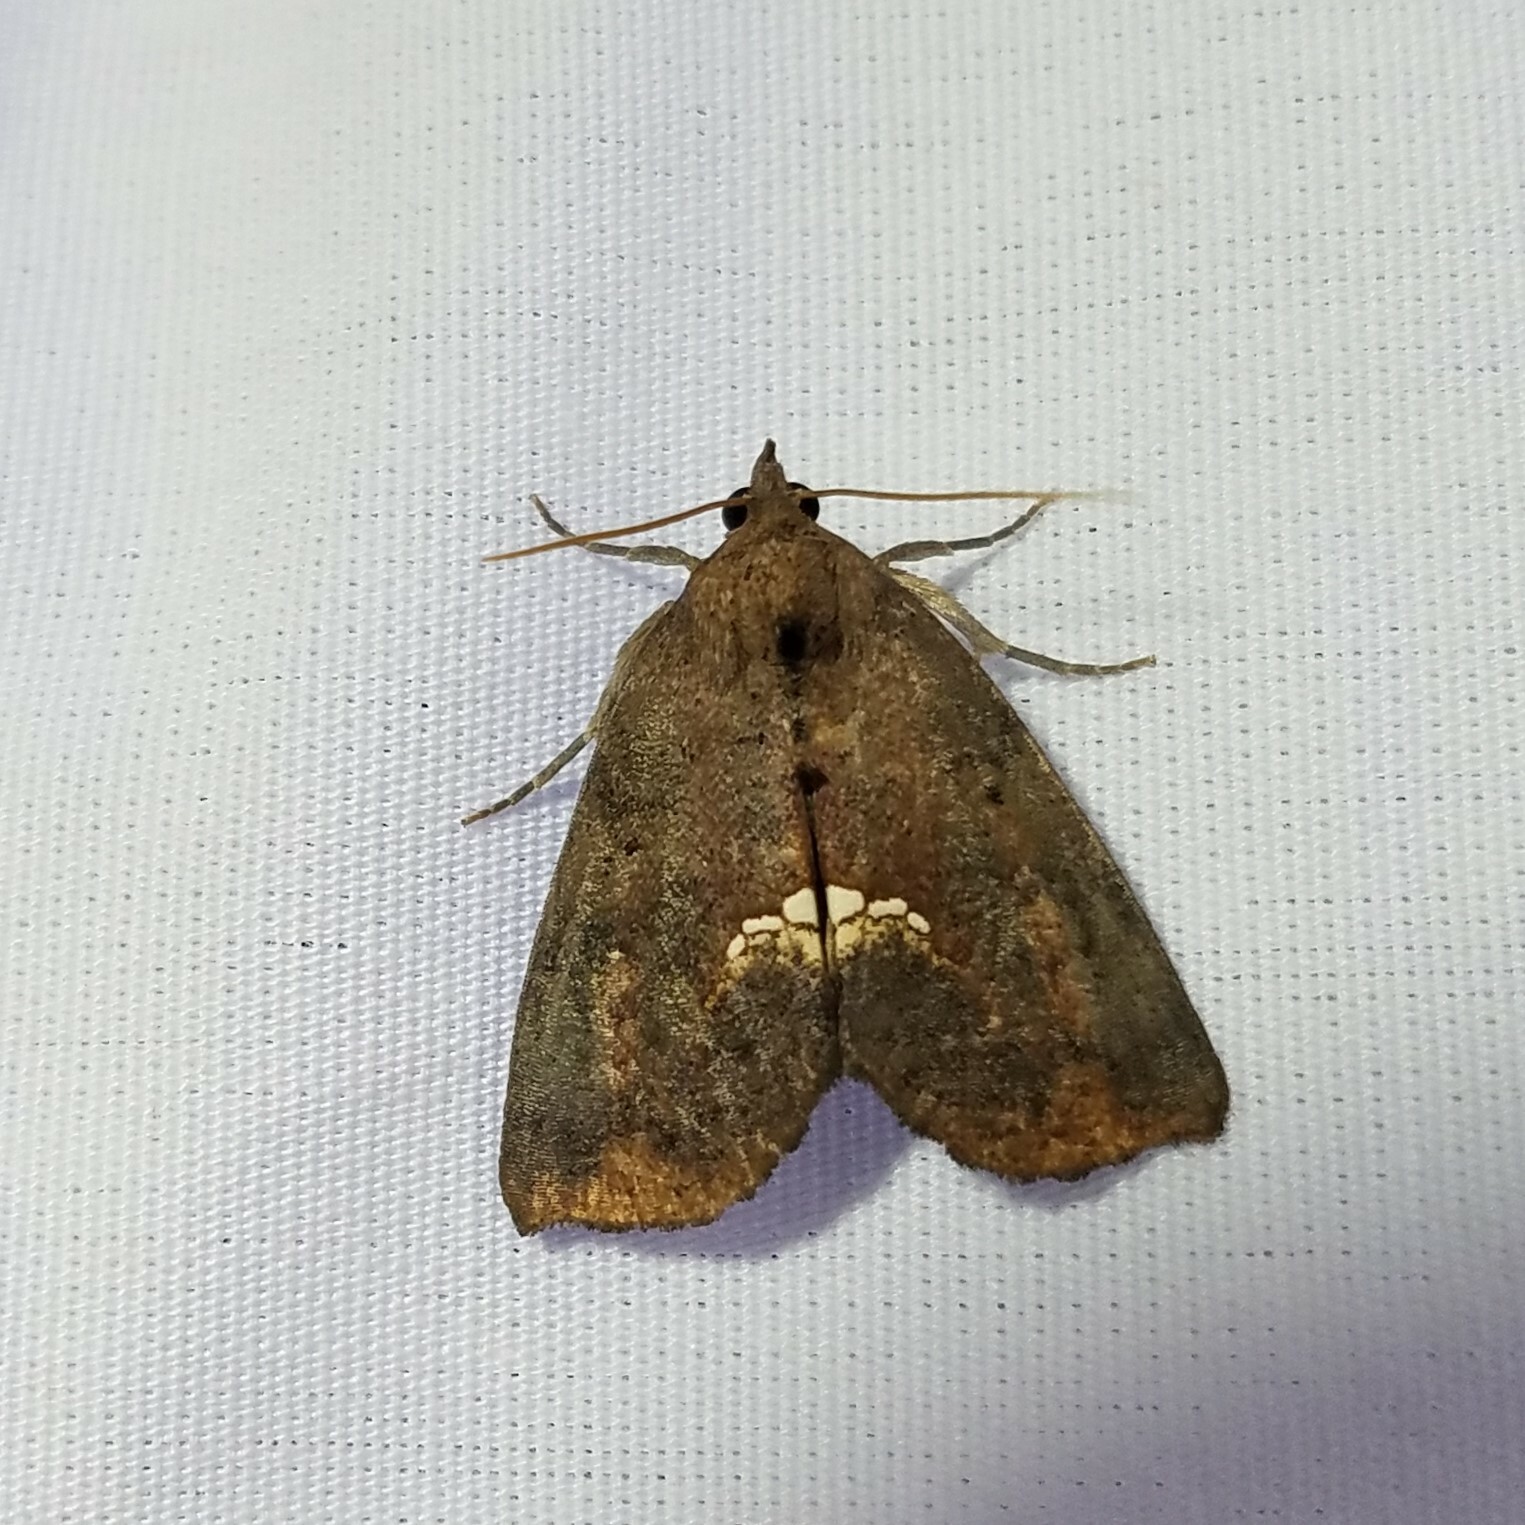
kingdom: Animalia
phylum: Arthropoda
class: Insecta
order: Lepidoptera
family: Erebidae
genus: Hypsoropha
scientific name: Hypsoropha hormos
